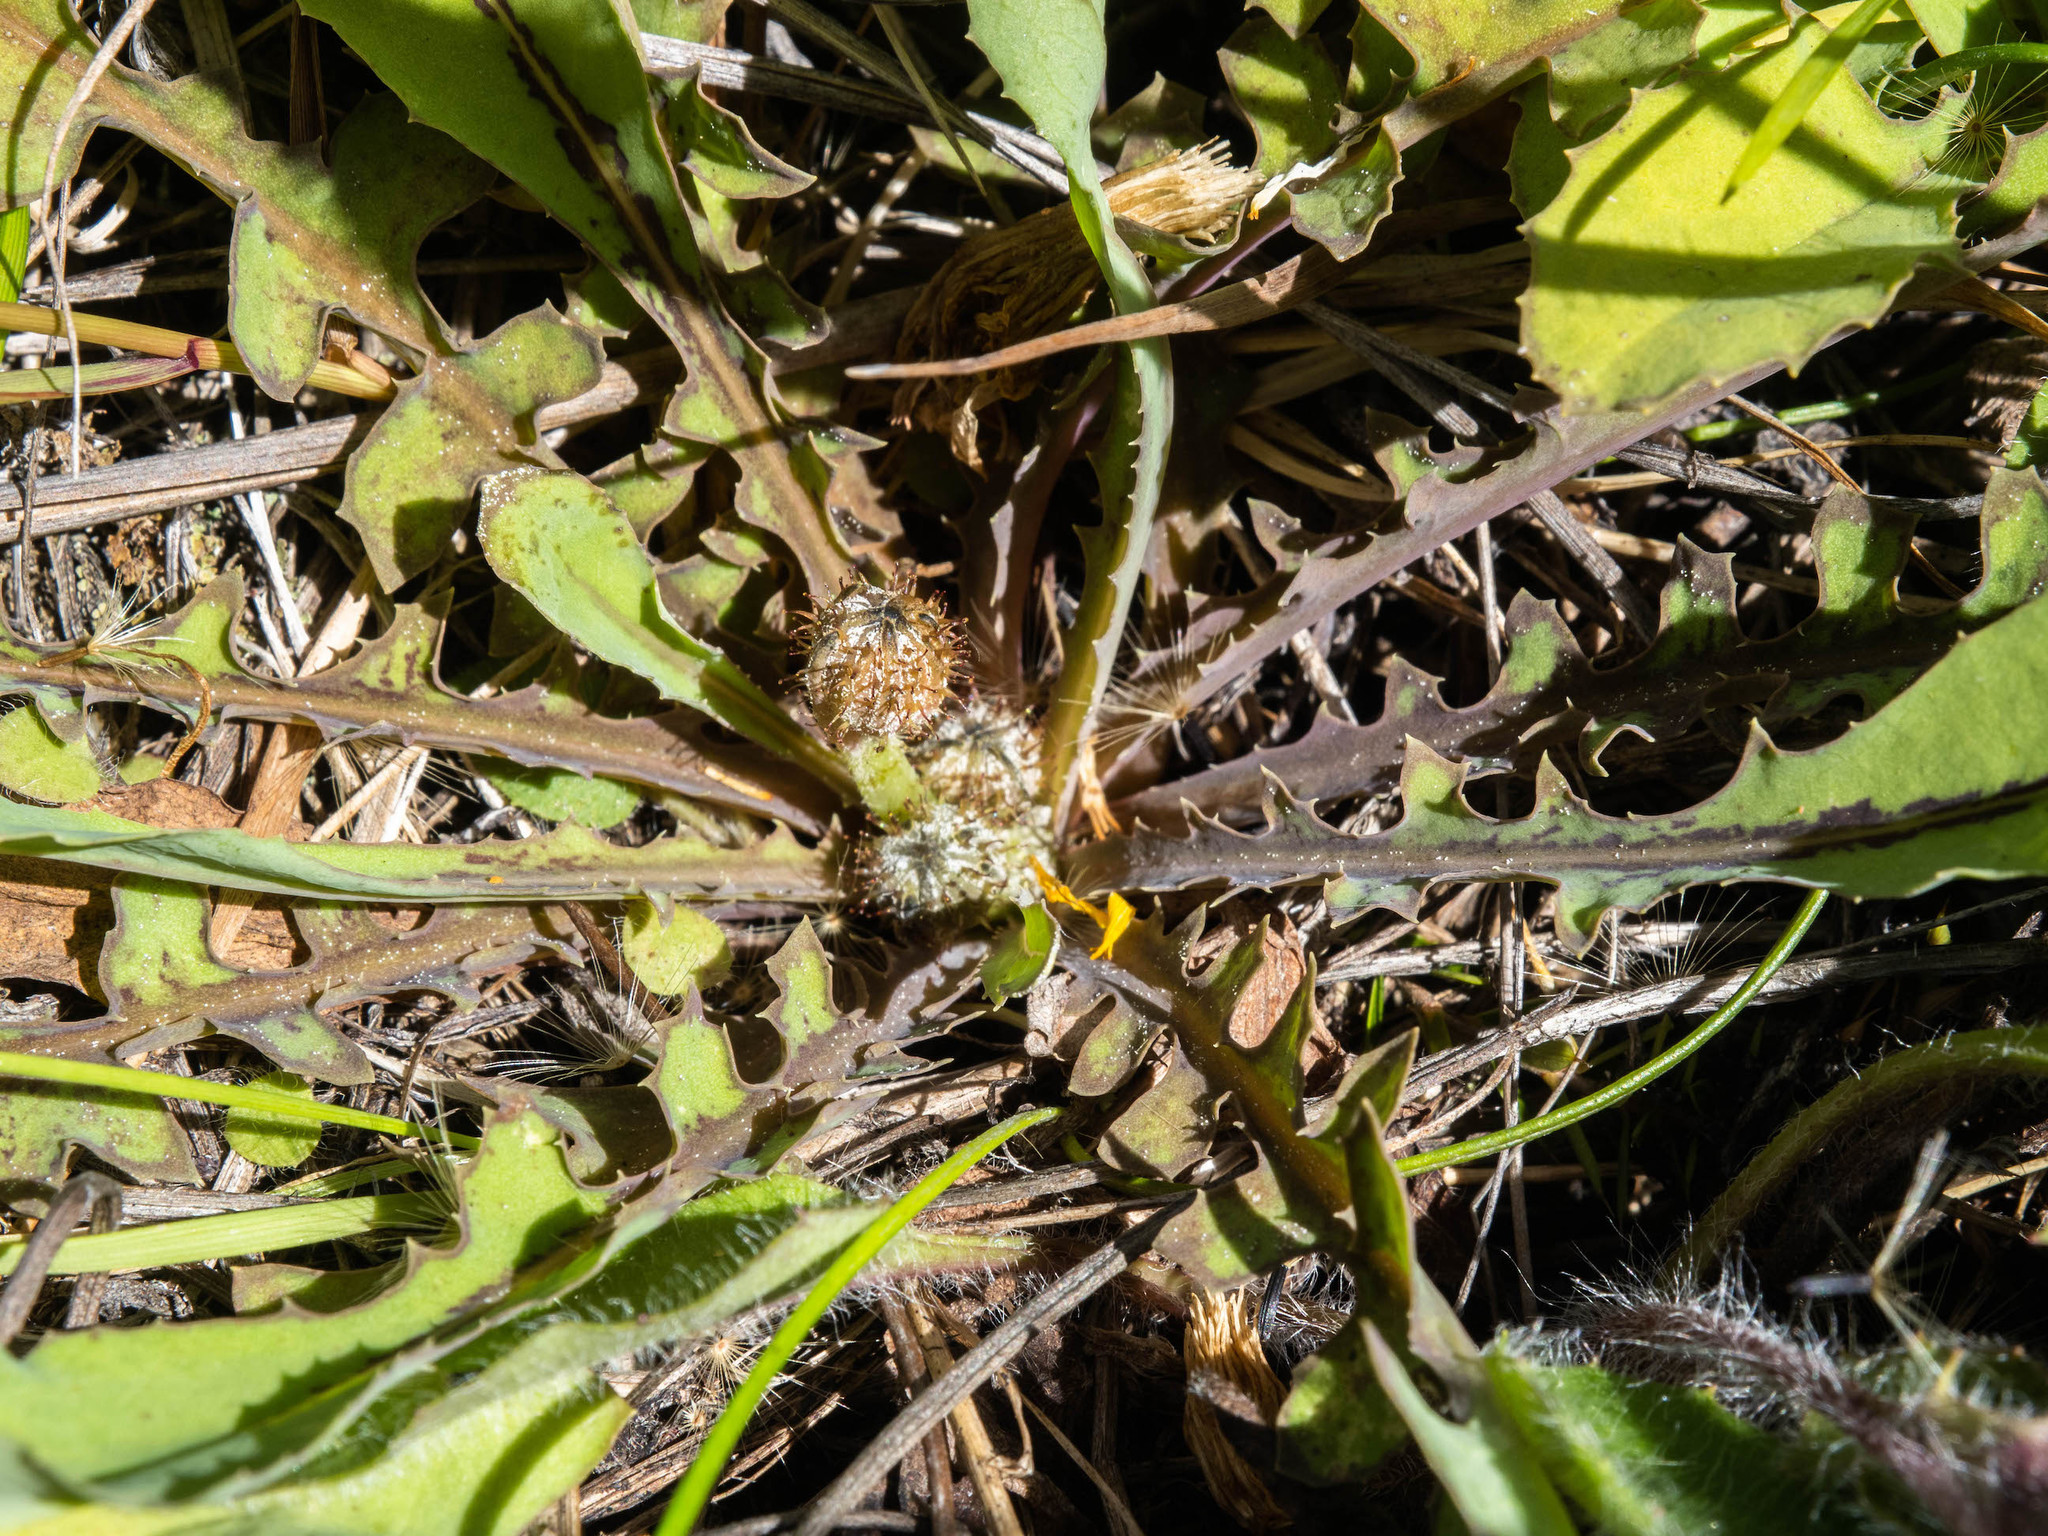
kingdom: Plantae
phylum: Tracheophyta
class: Magnoliopsida
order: Asterales
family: Asteraceae
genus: Sonchus
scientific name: Sonchus novae-zelandiae
